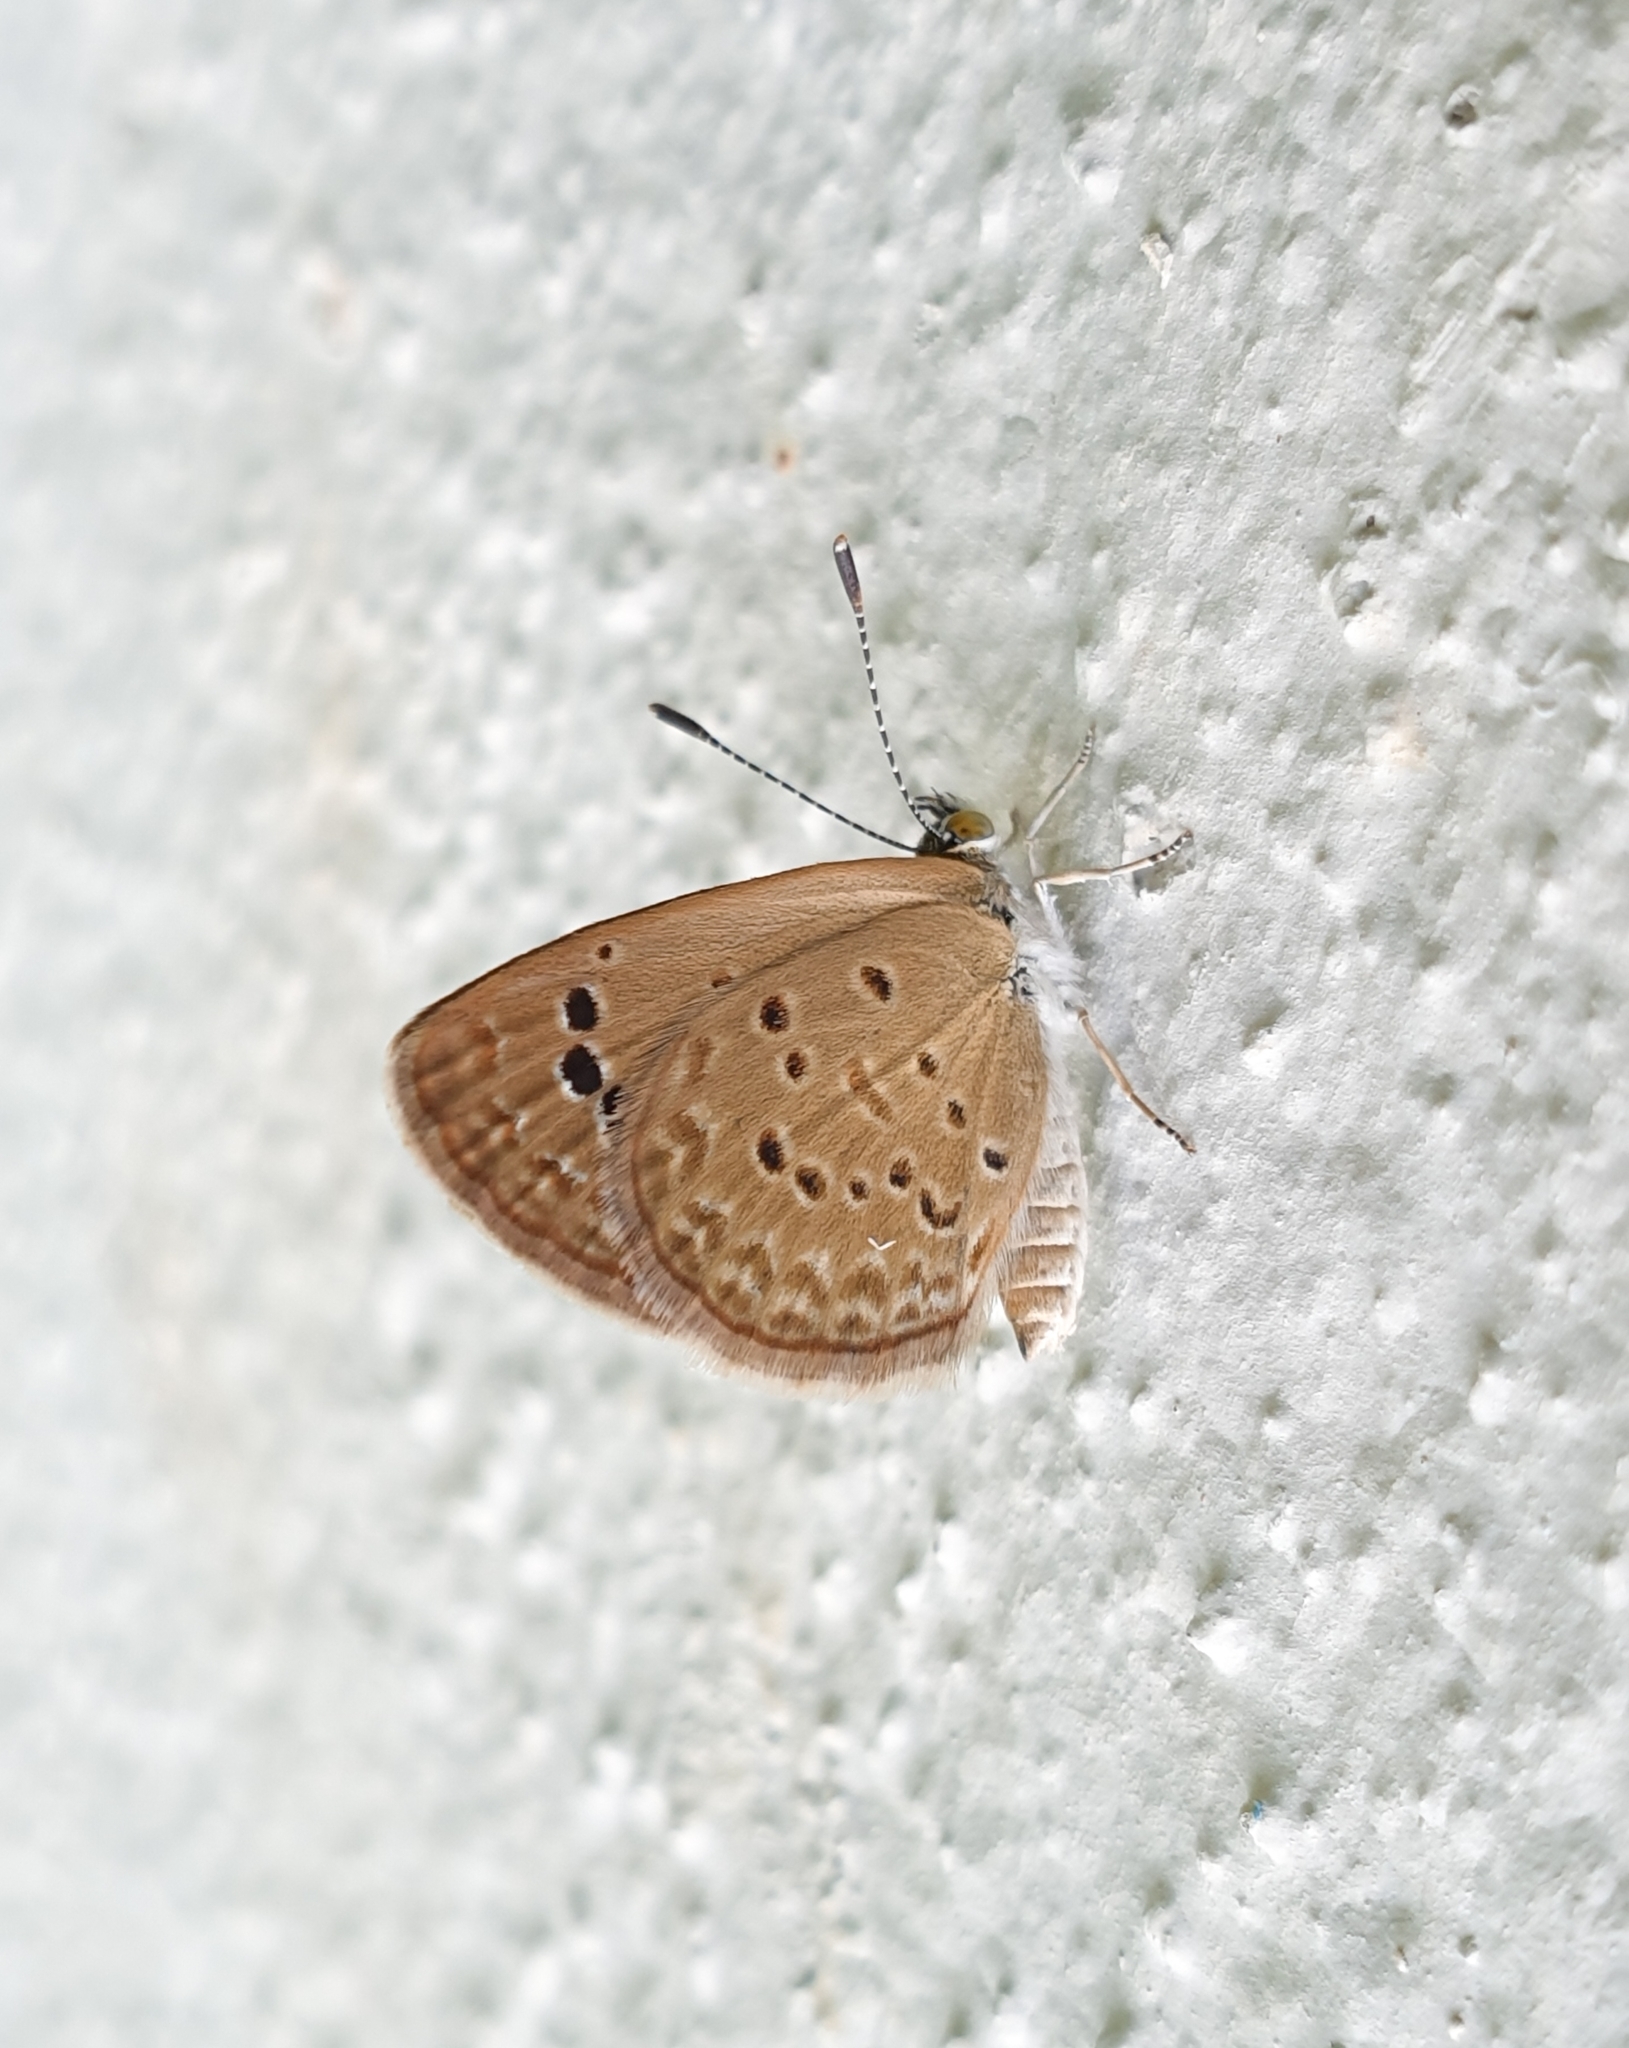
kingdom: Animalia
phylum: Arthropoda
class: Insecta
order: Lepidoptera
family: Lycaenidae
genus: Zizina
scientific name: Zizina otis
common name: Lesser grass blue
